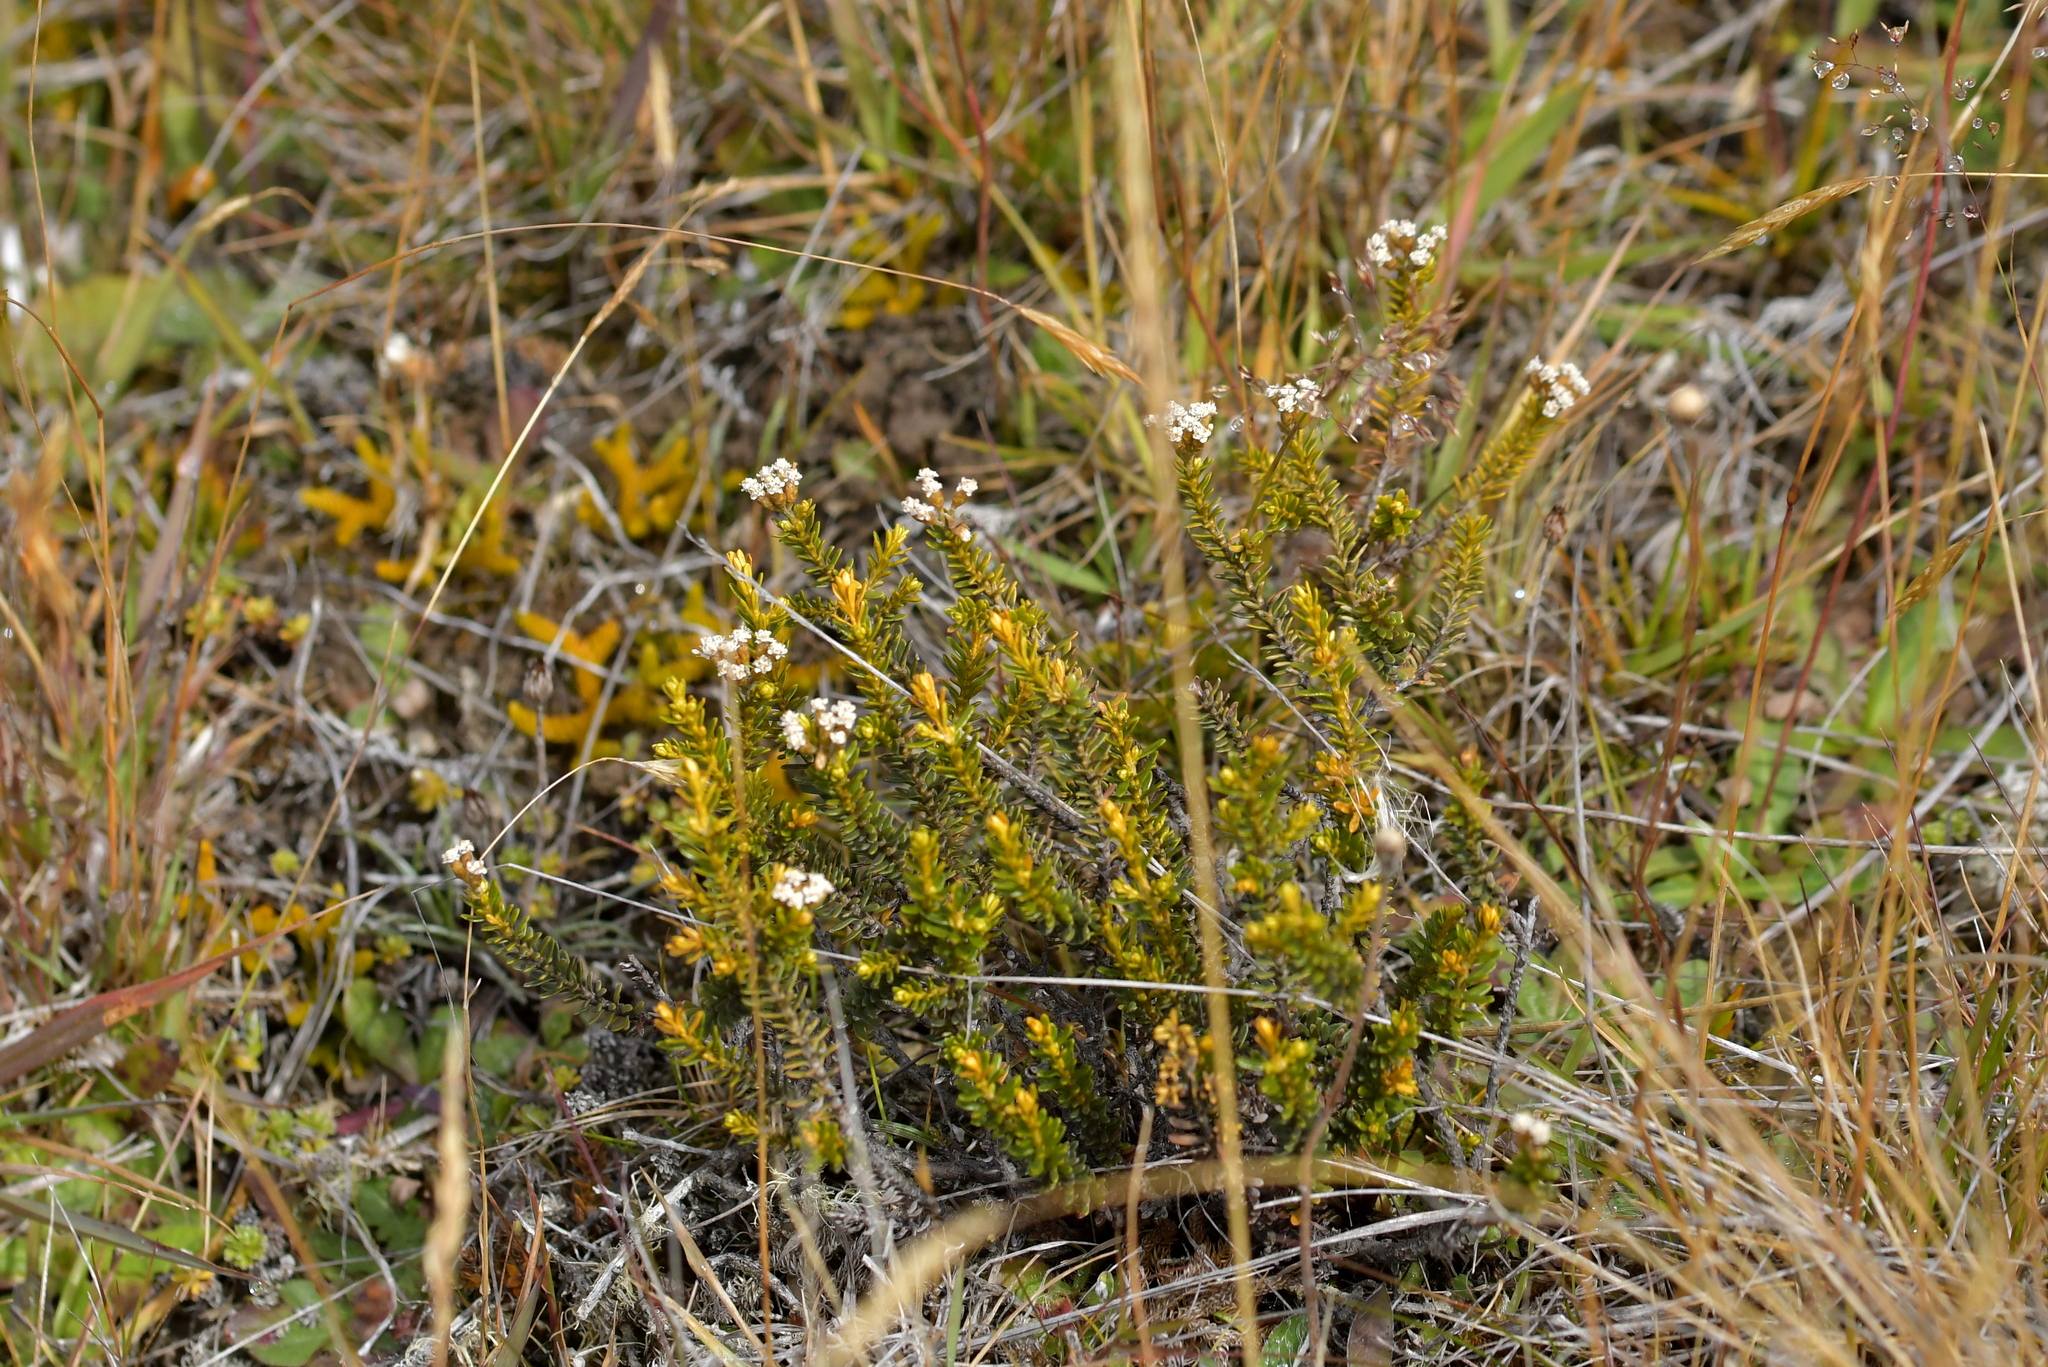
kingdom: Plantae
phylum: Tracheophyta
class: Magnoliopsida
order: Asterales
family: Asteraceae
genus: Ozothamnus
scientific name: Ozothamnus leptophyllus
